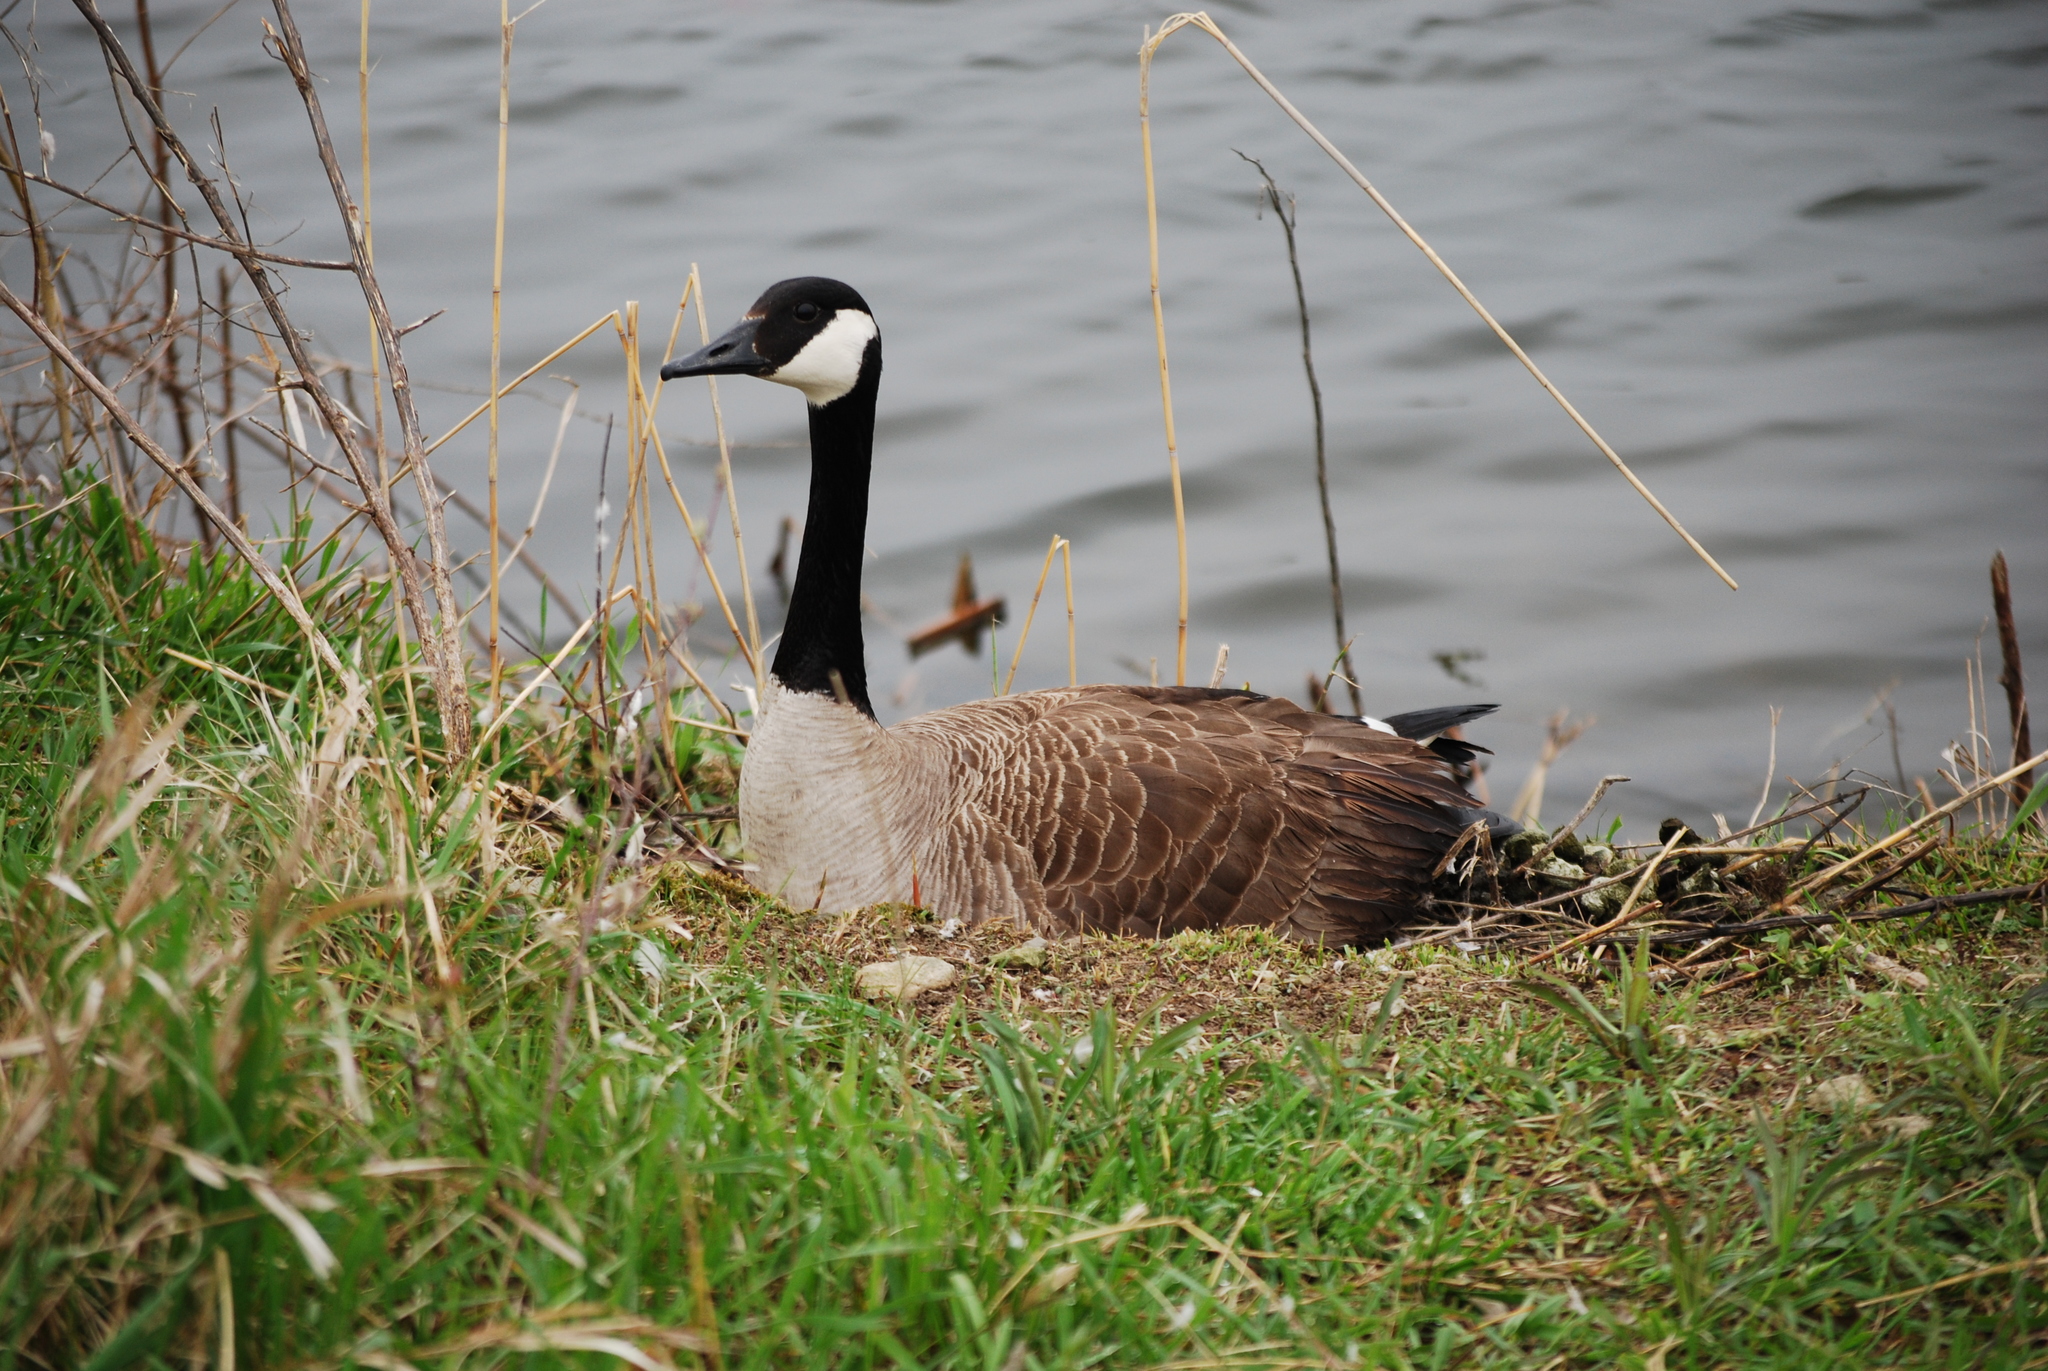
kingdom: Animalia
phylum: Chordata
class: Aves
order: Anseriformes
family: Anatidae
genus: Branta
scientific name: Branta canadensis
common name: Canada goose
